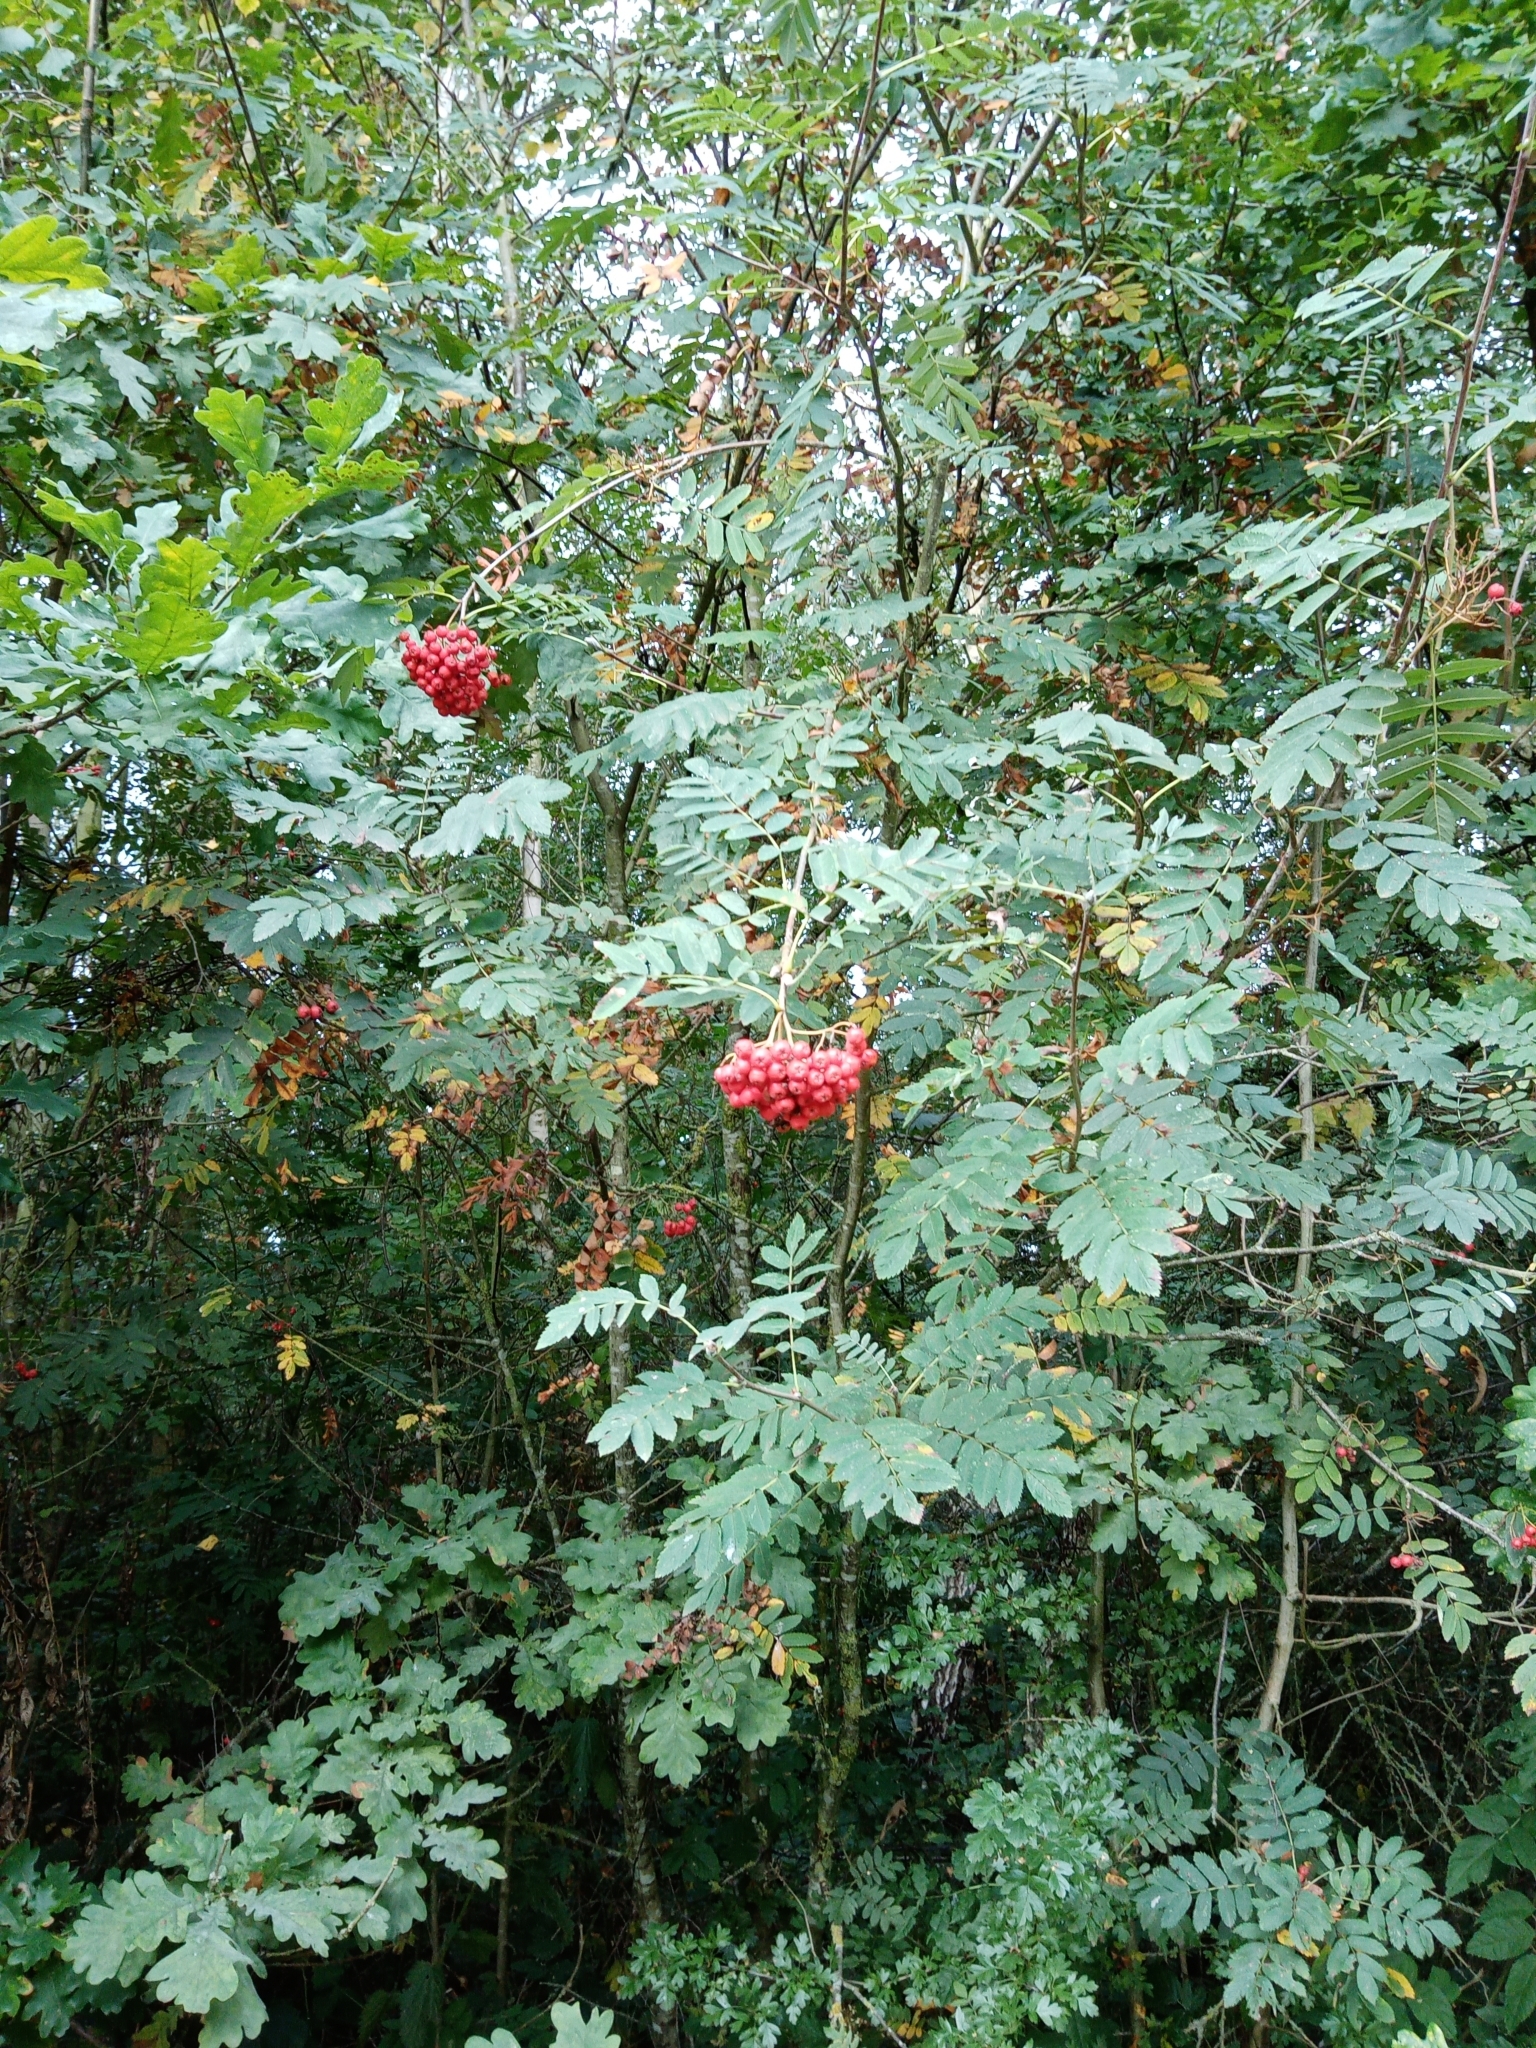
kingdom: Plantae
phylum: Tracheophyta
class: Magnoliopsida
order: Rosales
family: Rosaceae
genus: Sorbus
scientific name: Sorbus aucuparia
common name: Rowan
